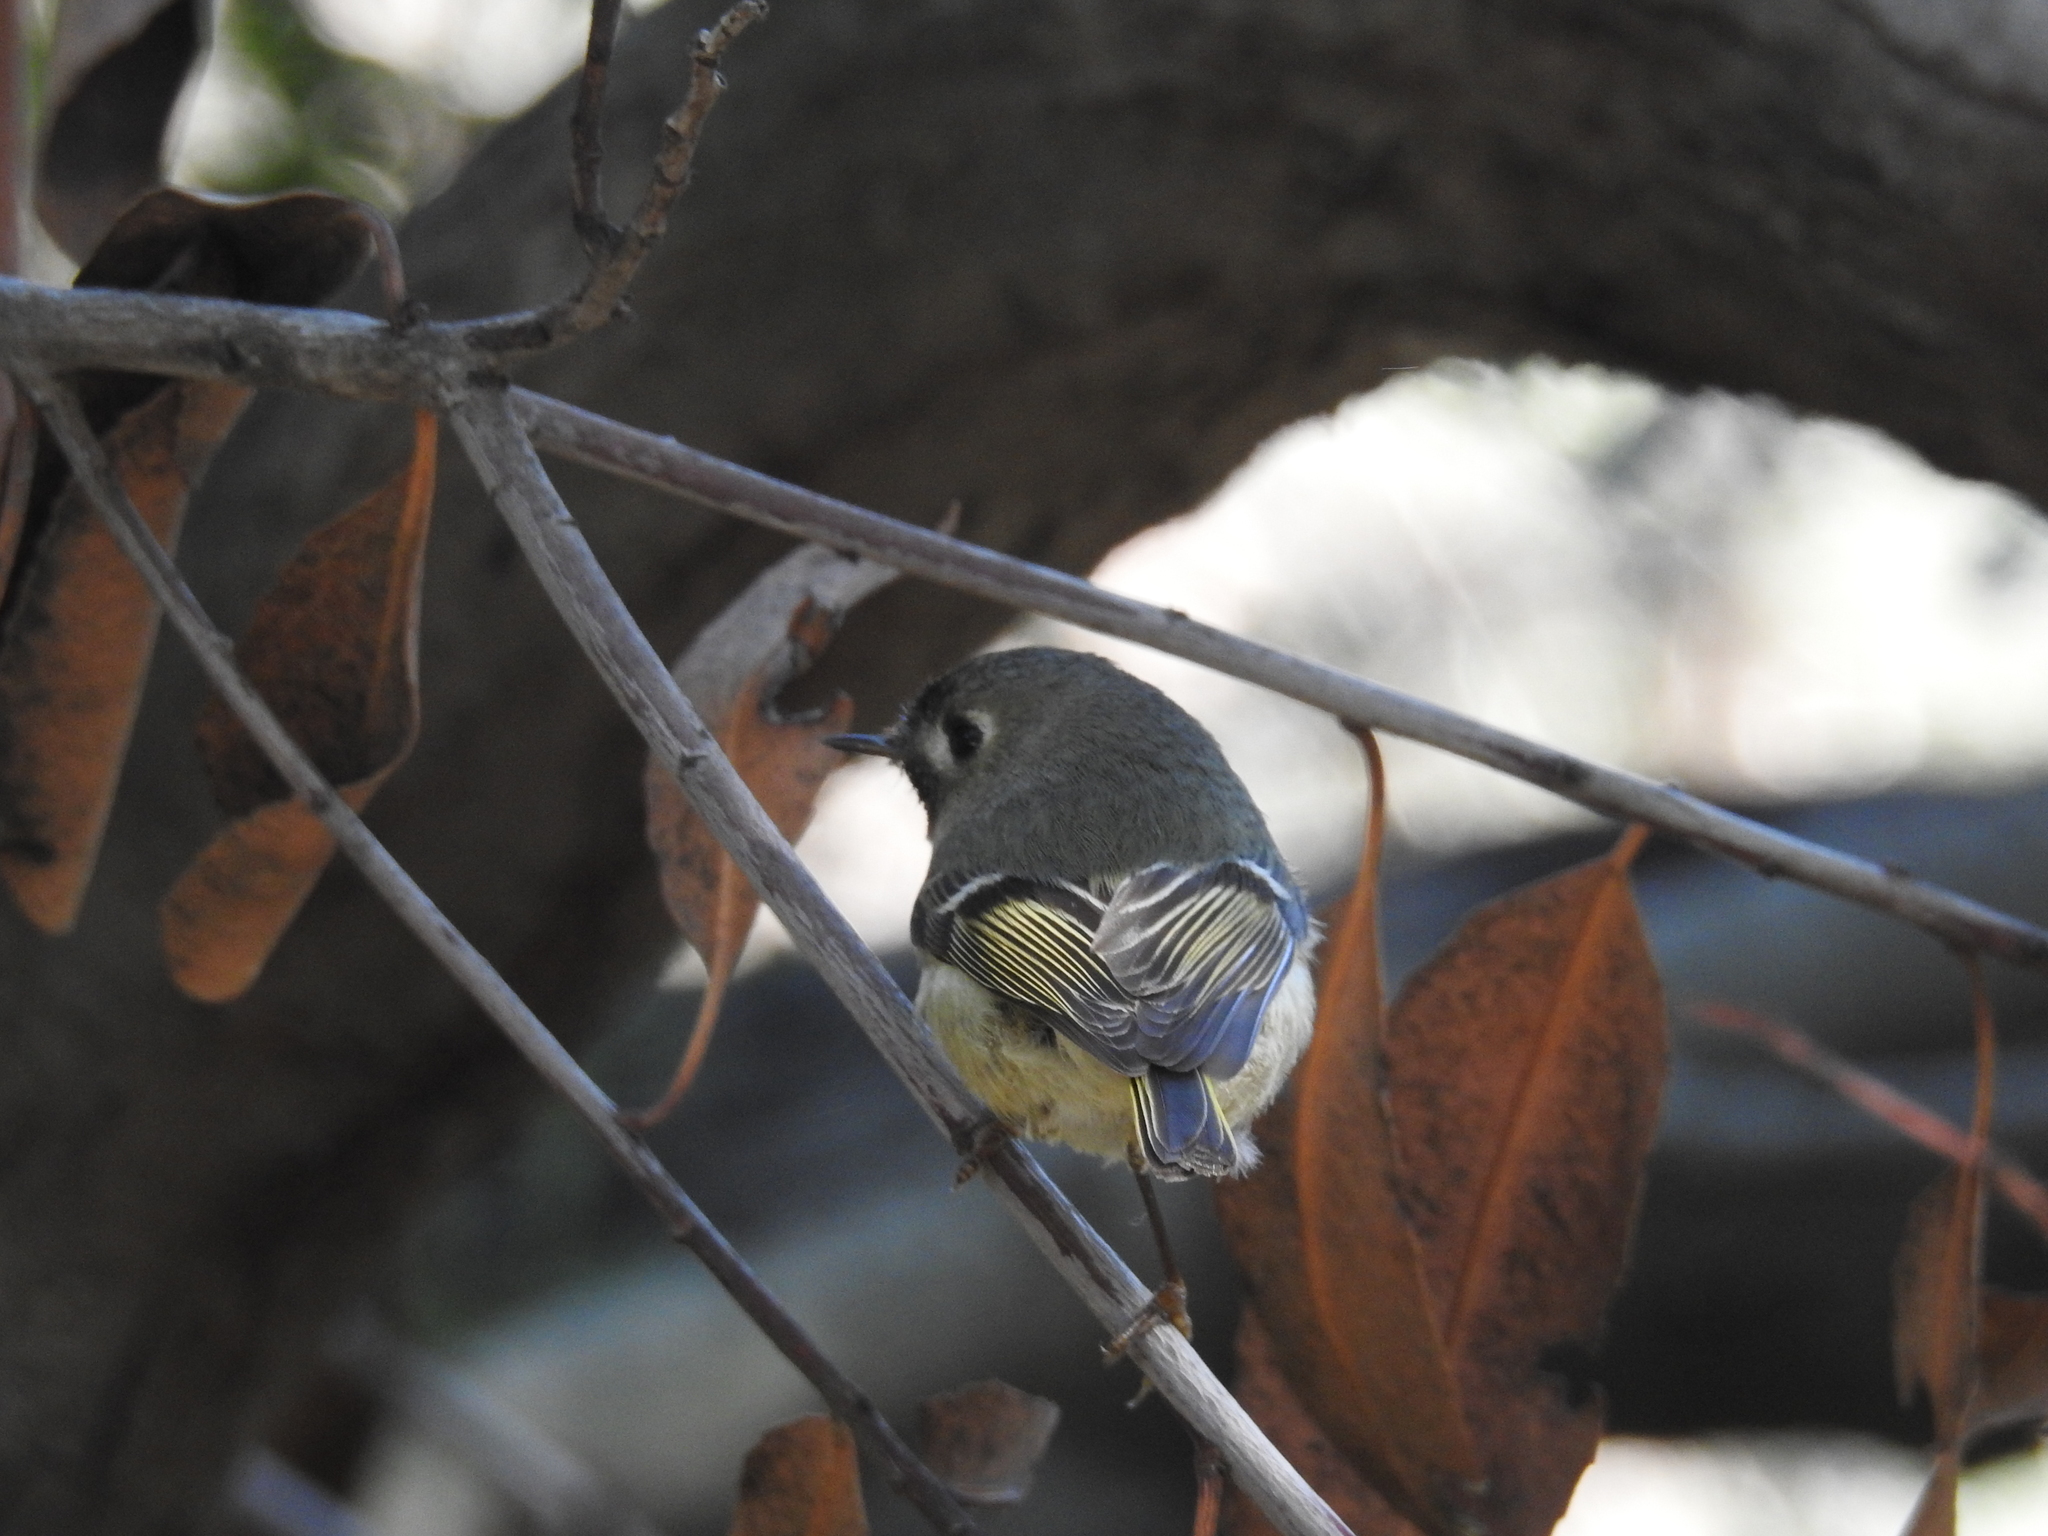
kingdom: Animalia
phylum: Chordata
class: Aves
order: Passeriformes
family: Regulidae
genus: Regulus
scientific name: Regulus calendula
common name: Ruby-crowned kinglet
